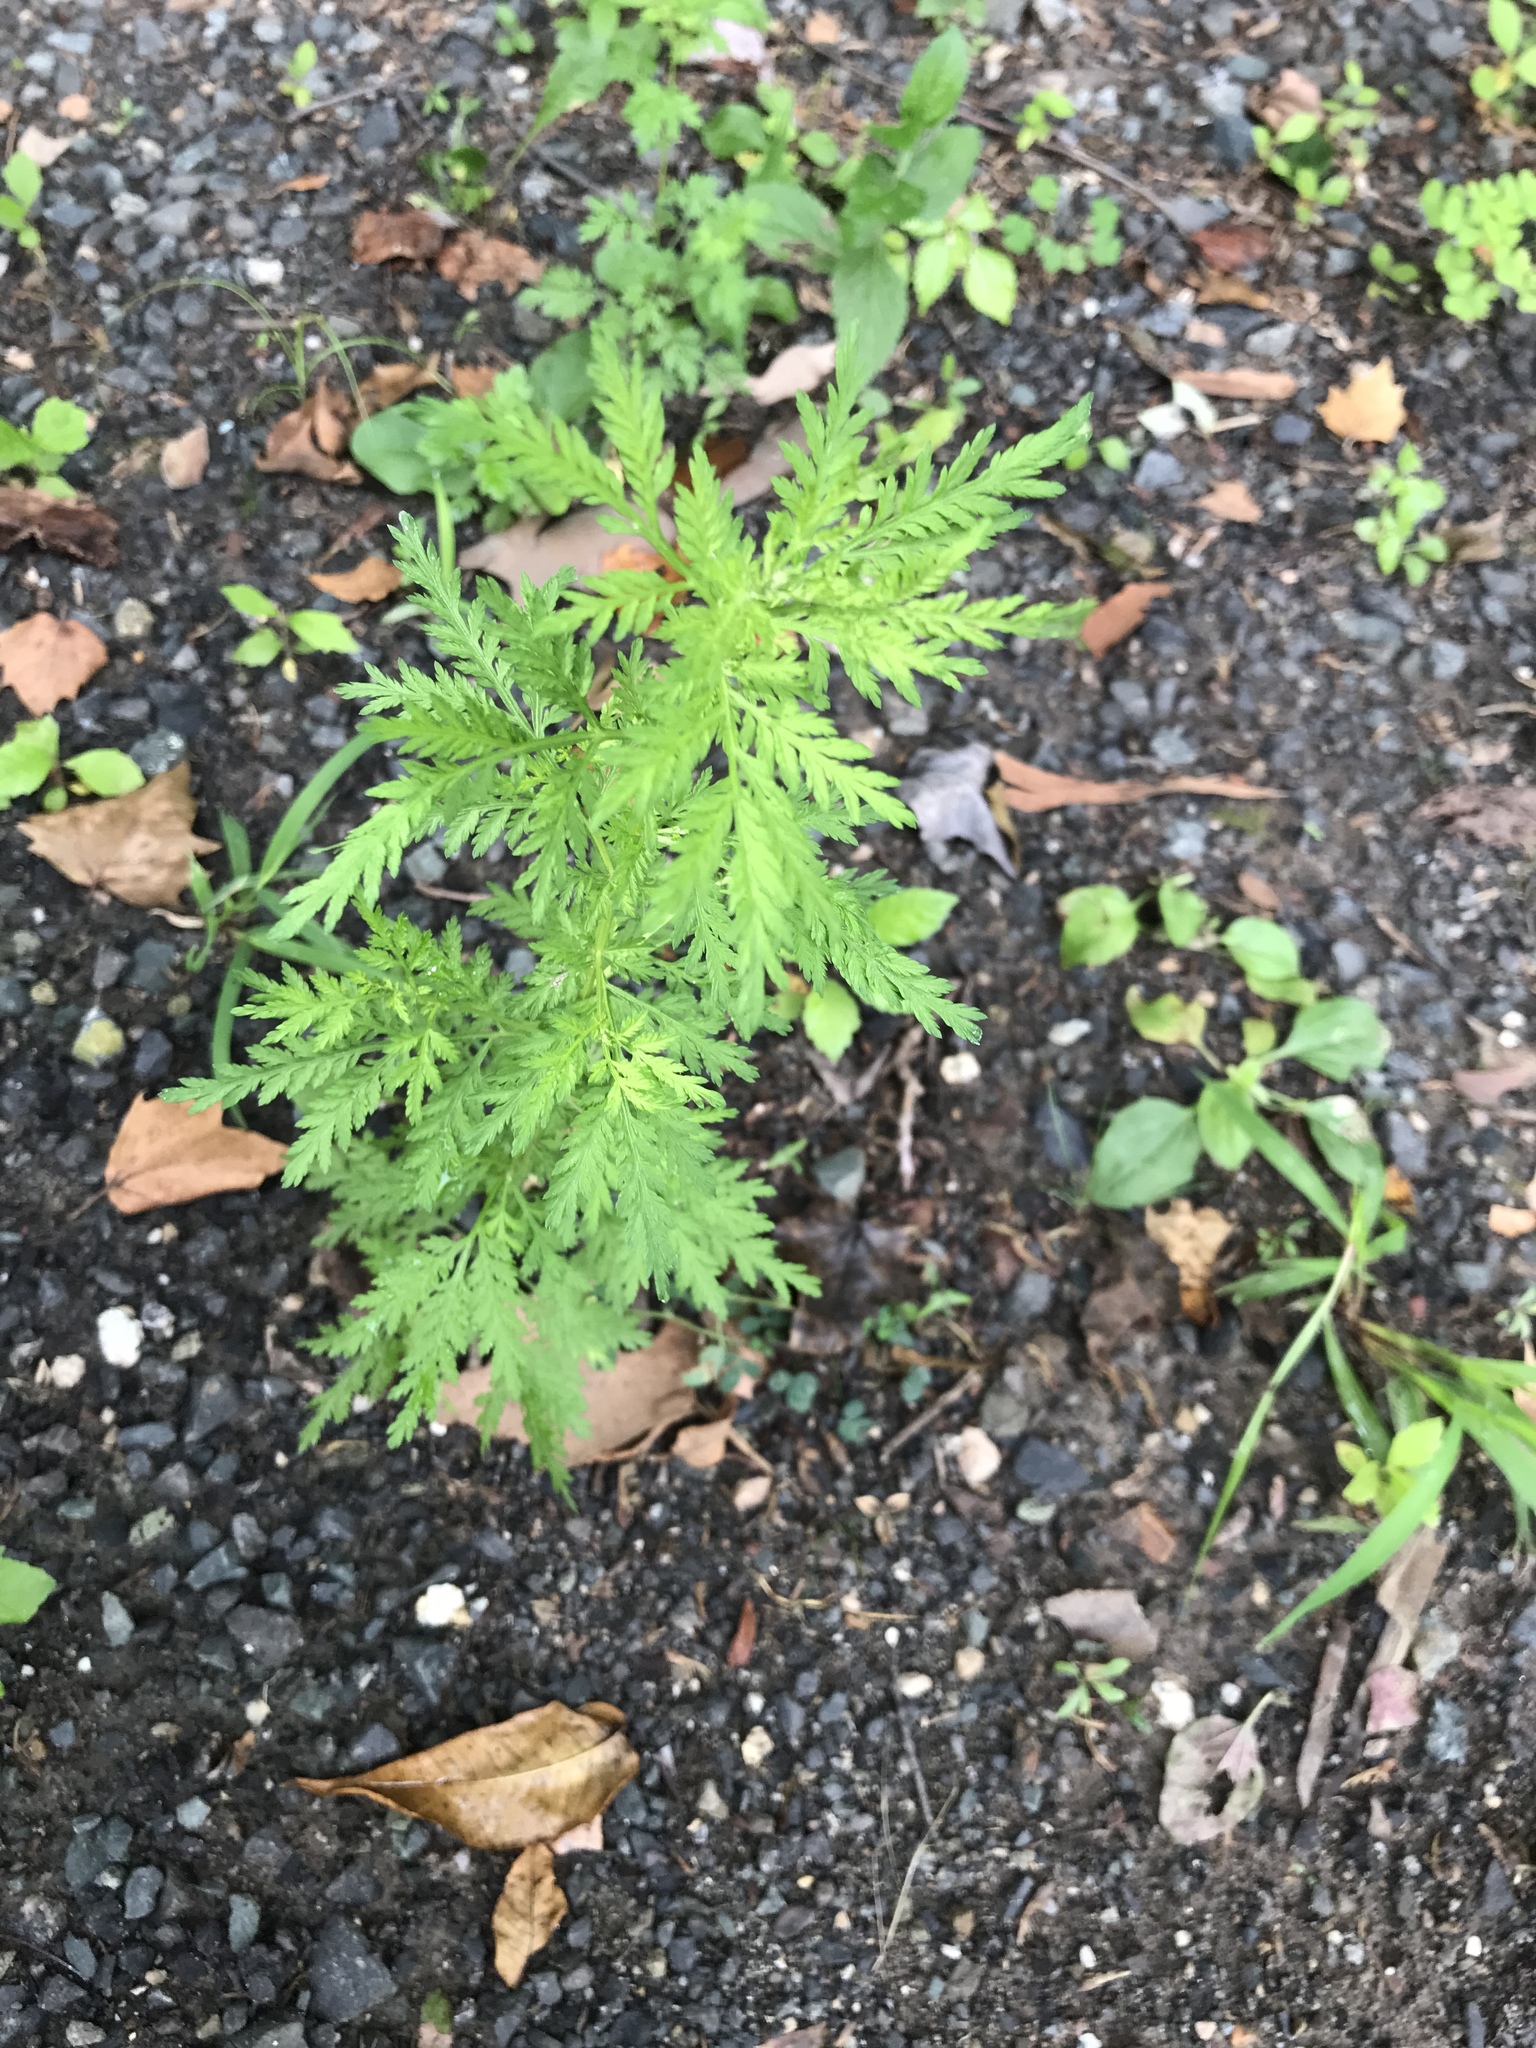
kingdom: Plantae
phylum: Tracheophyta
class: Magnoliopsida
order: Asterales
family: Asteraceae
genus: Artemisia
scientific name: Artemisia annua
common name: Sweet sagewort
